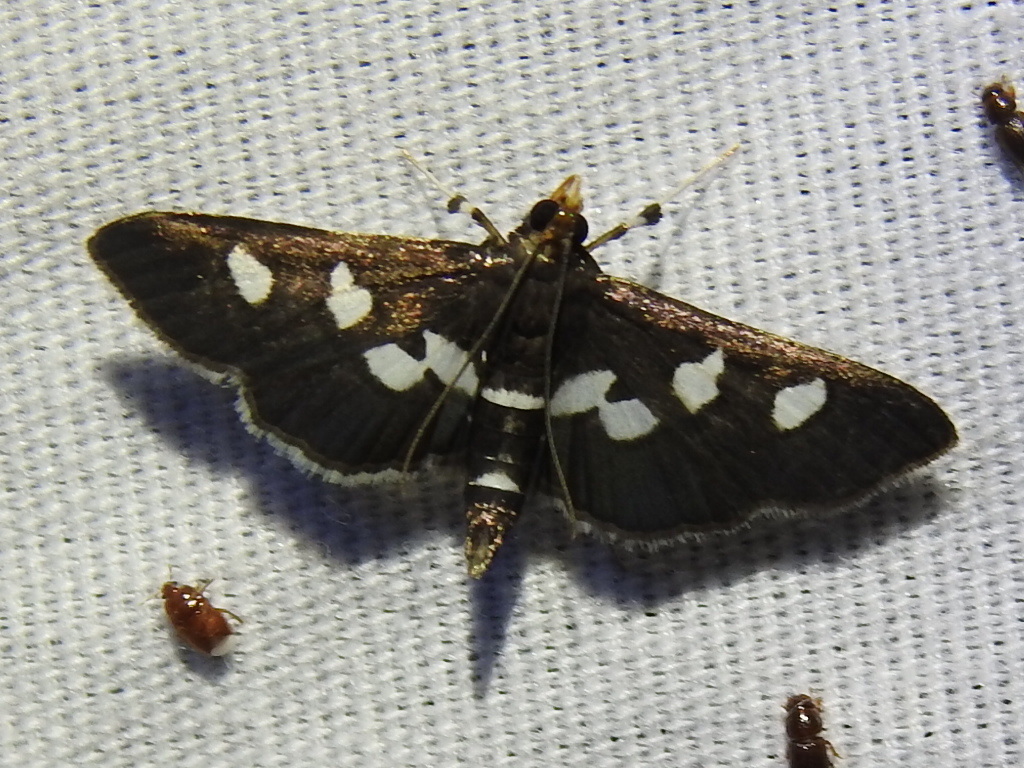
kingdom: Animalia
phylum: Arthropoda
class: Insecta
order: Lepidoptera
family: Crambidae
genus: Desmia
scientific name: Desmia funeralis
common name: Grape leaf folder moth
